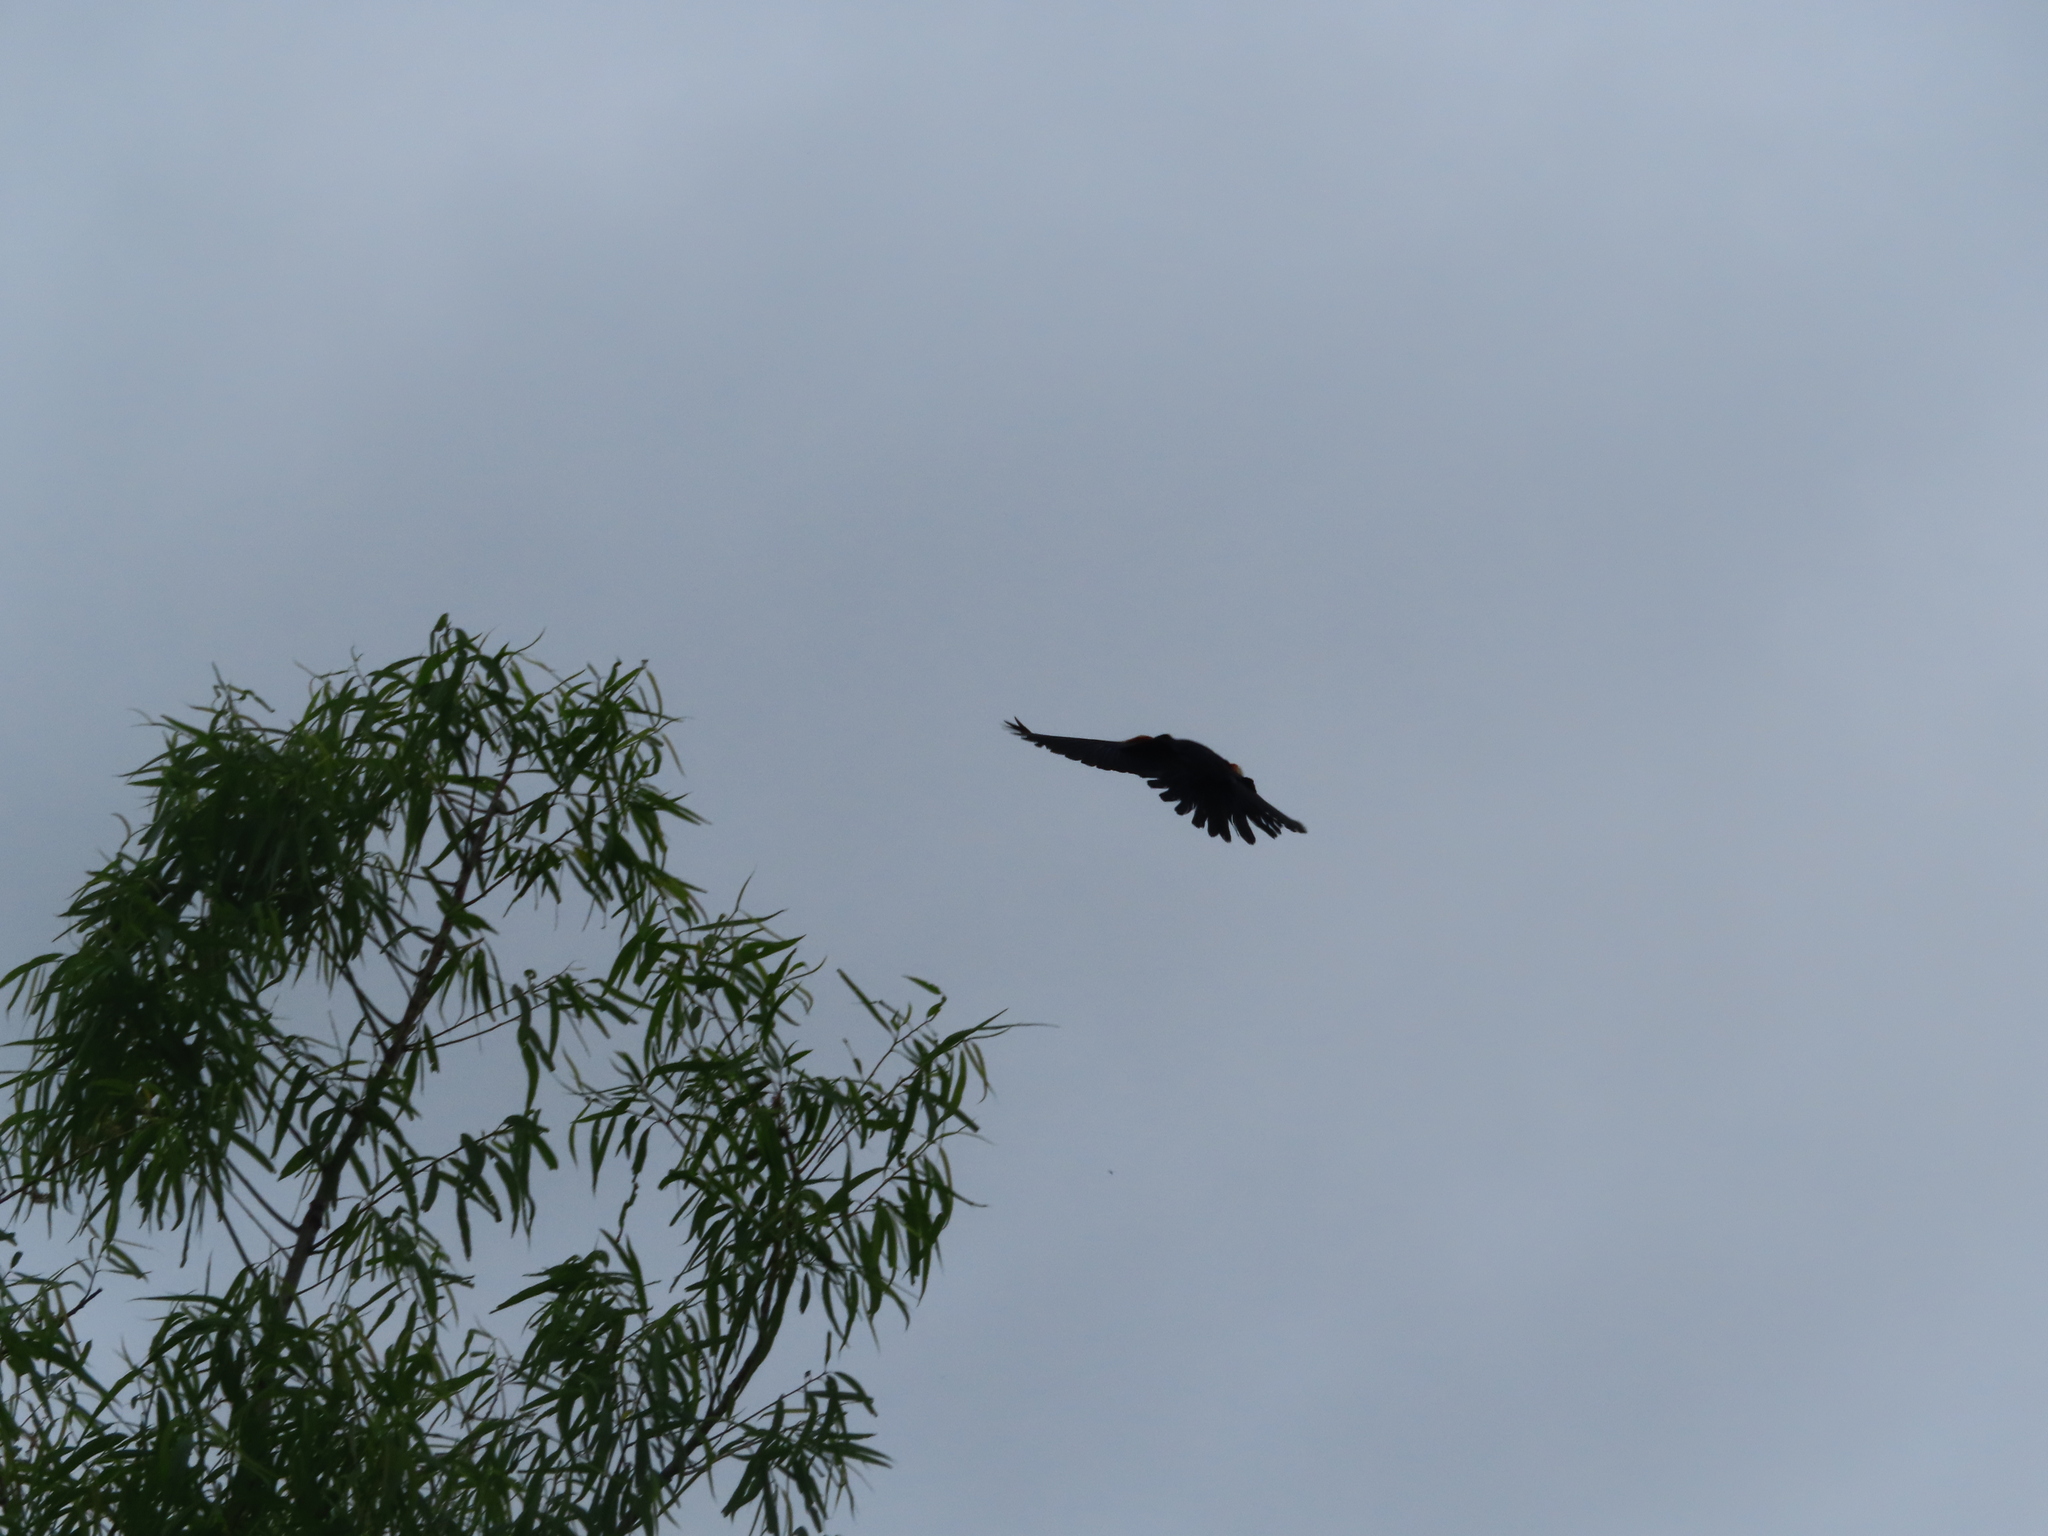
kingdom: Animalia
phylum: Chordata
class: Aves
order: Passeriformes
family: Icteridae
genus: Agelaius
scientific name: Agelaius phoeniceus
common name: Red-winged blackbird
